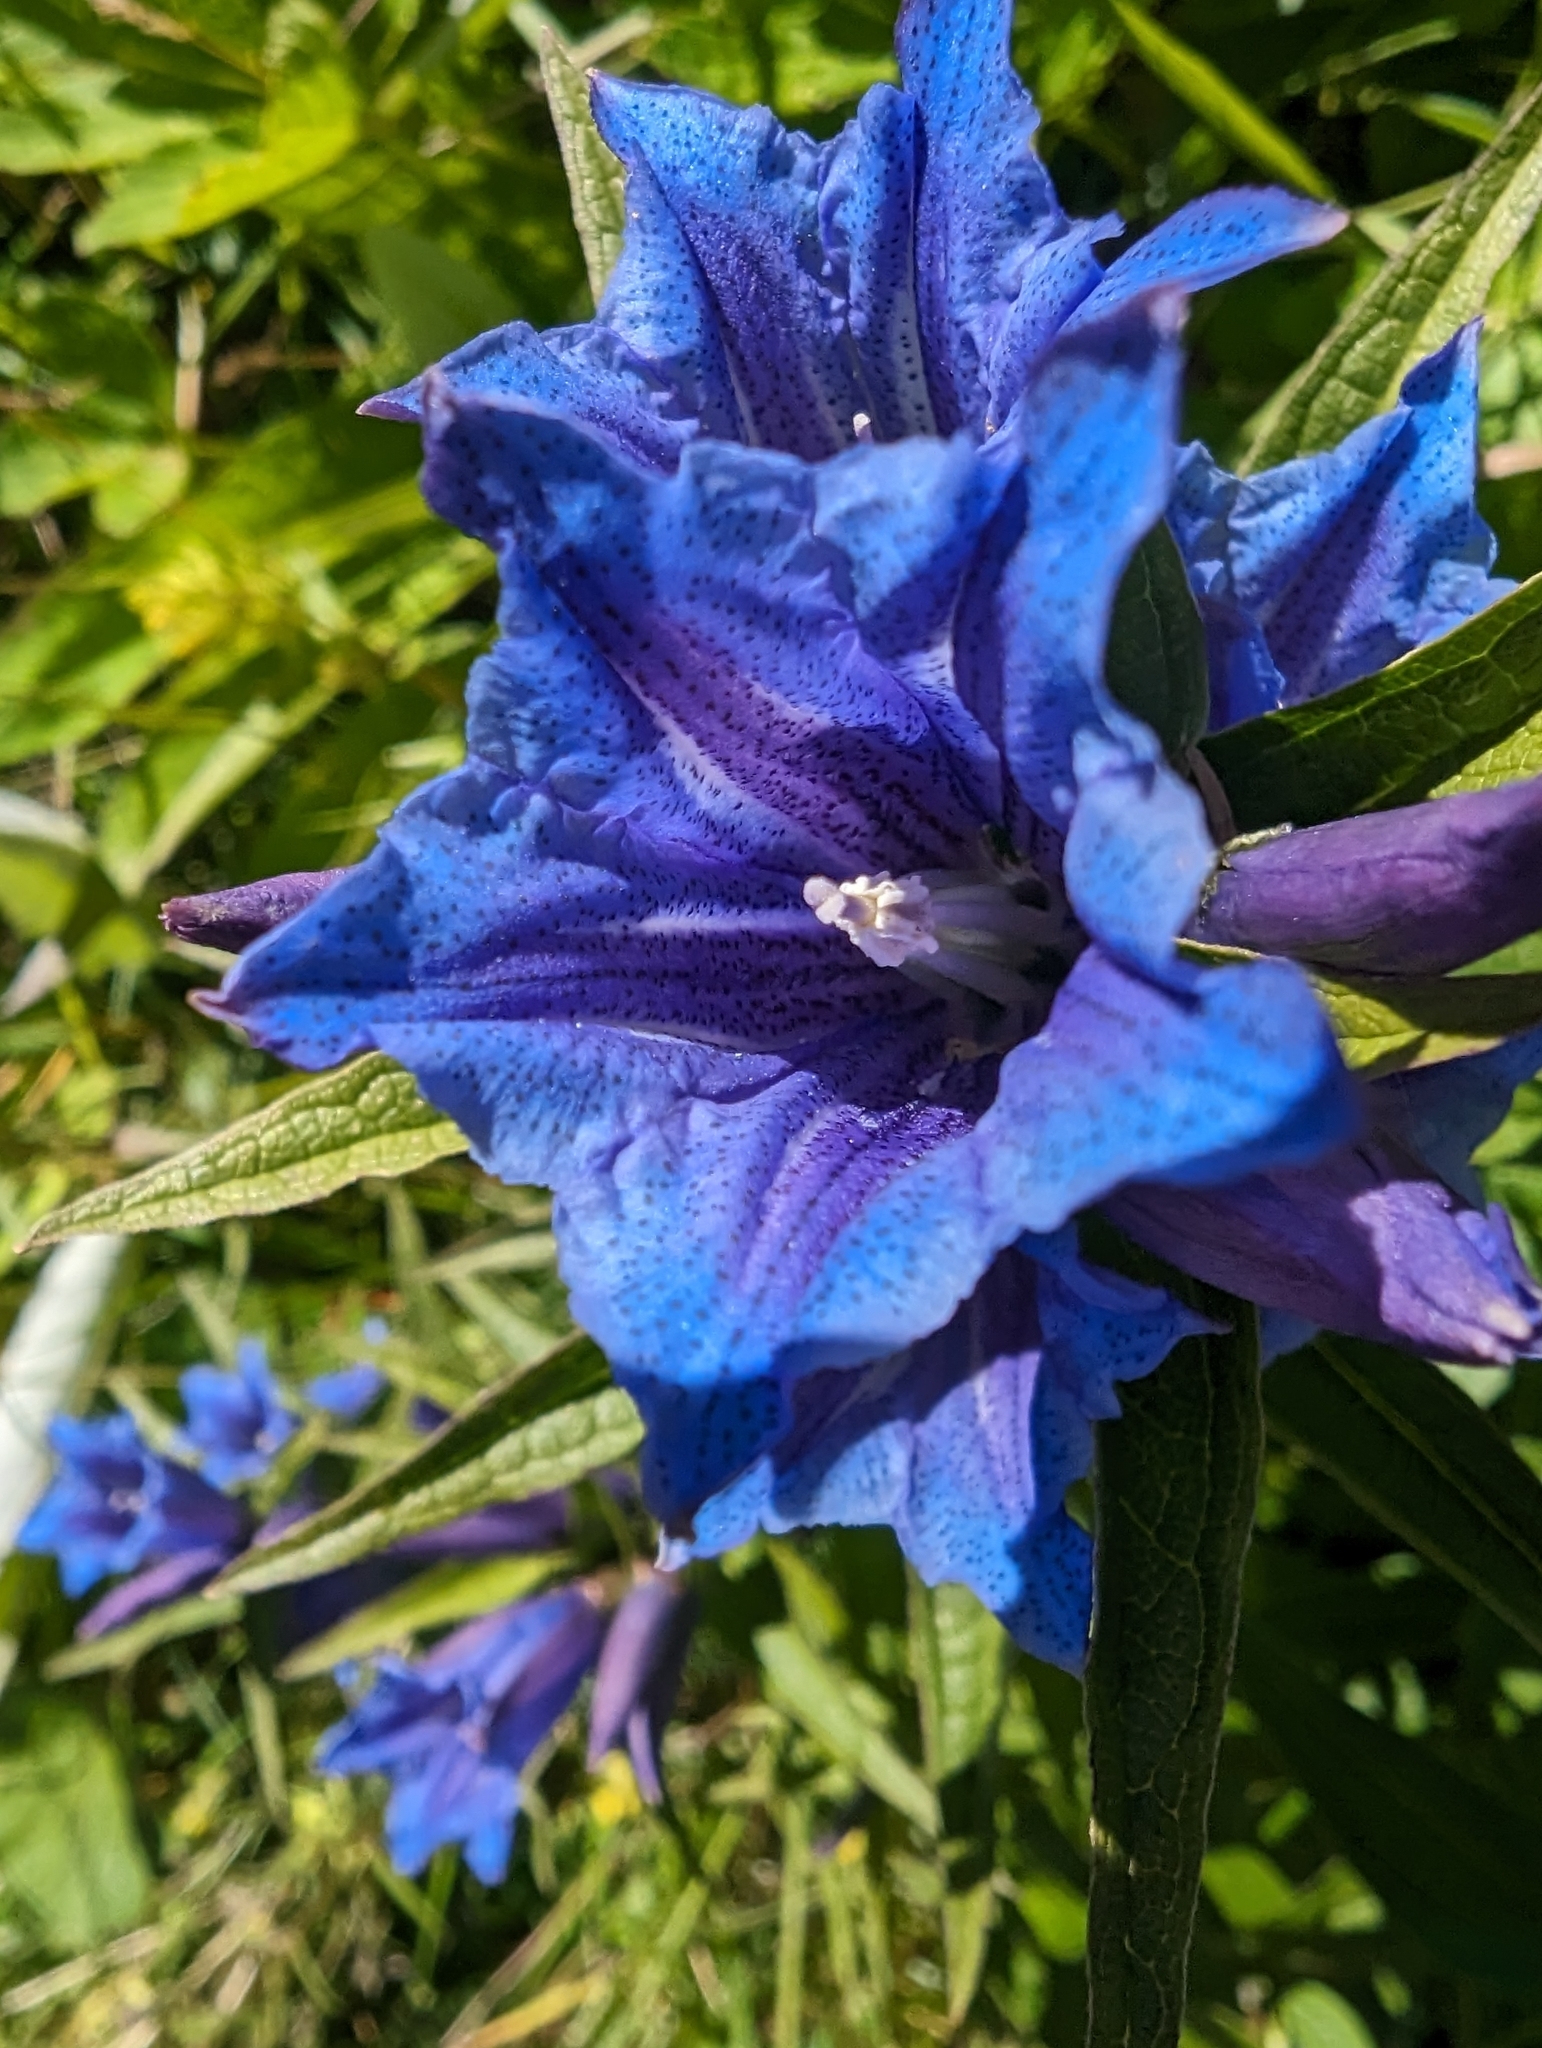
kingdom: Plantae
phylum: Tracheophyta
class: Magnoliopsida
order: Gentianales
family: Gentianaceae
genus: Gentiana
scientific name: Gentiana asclepiadea
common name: Willow gentian
